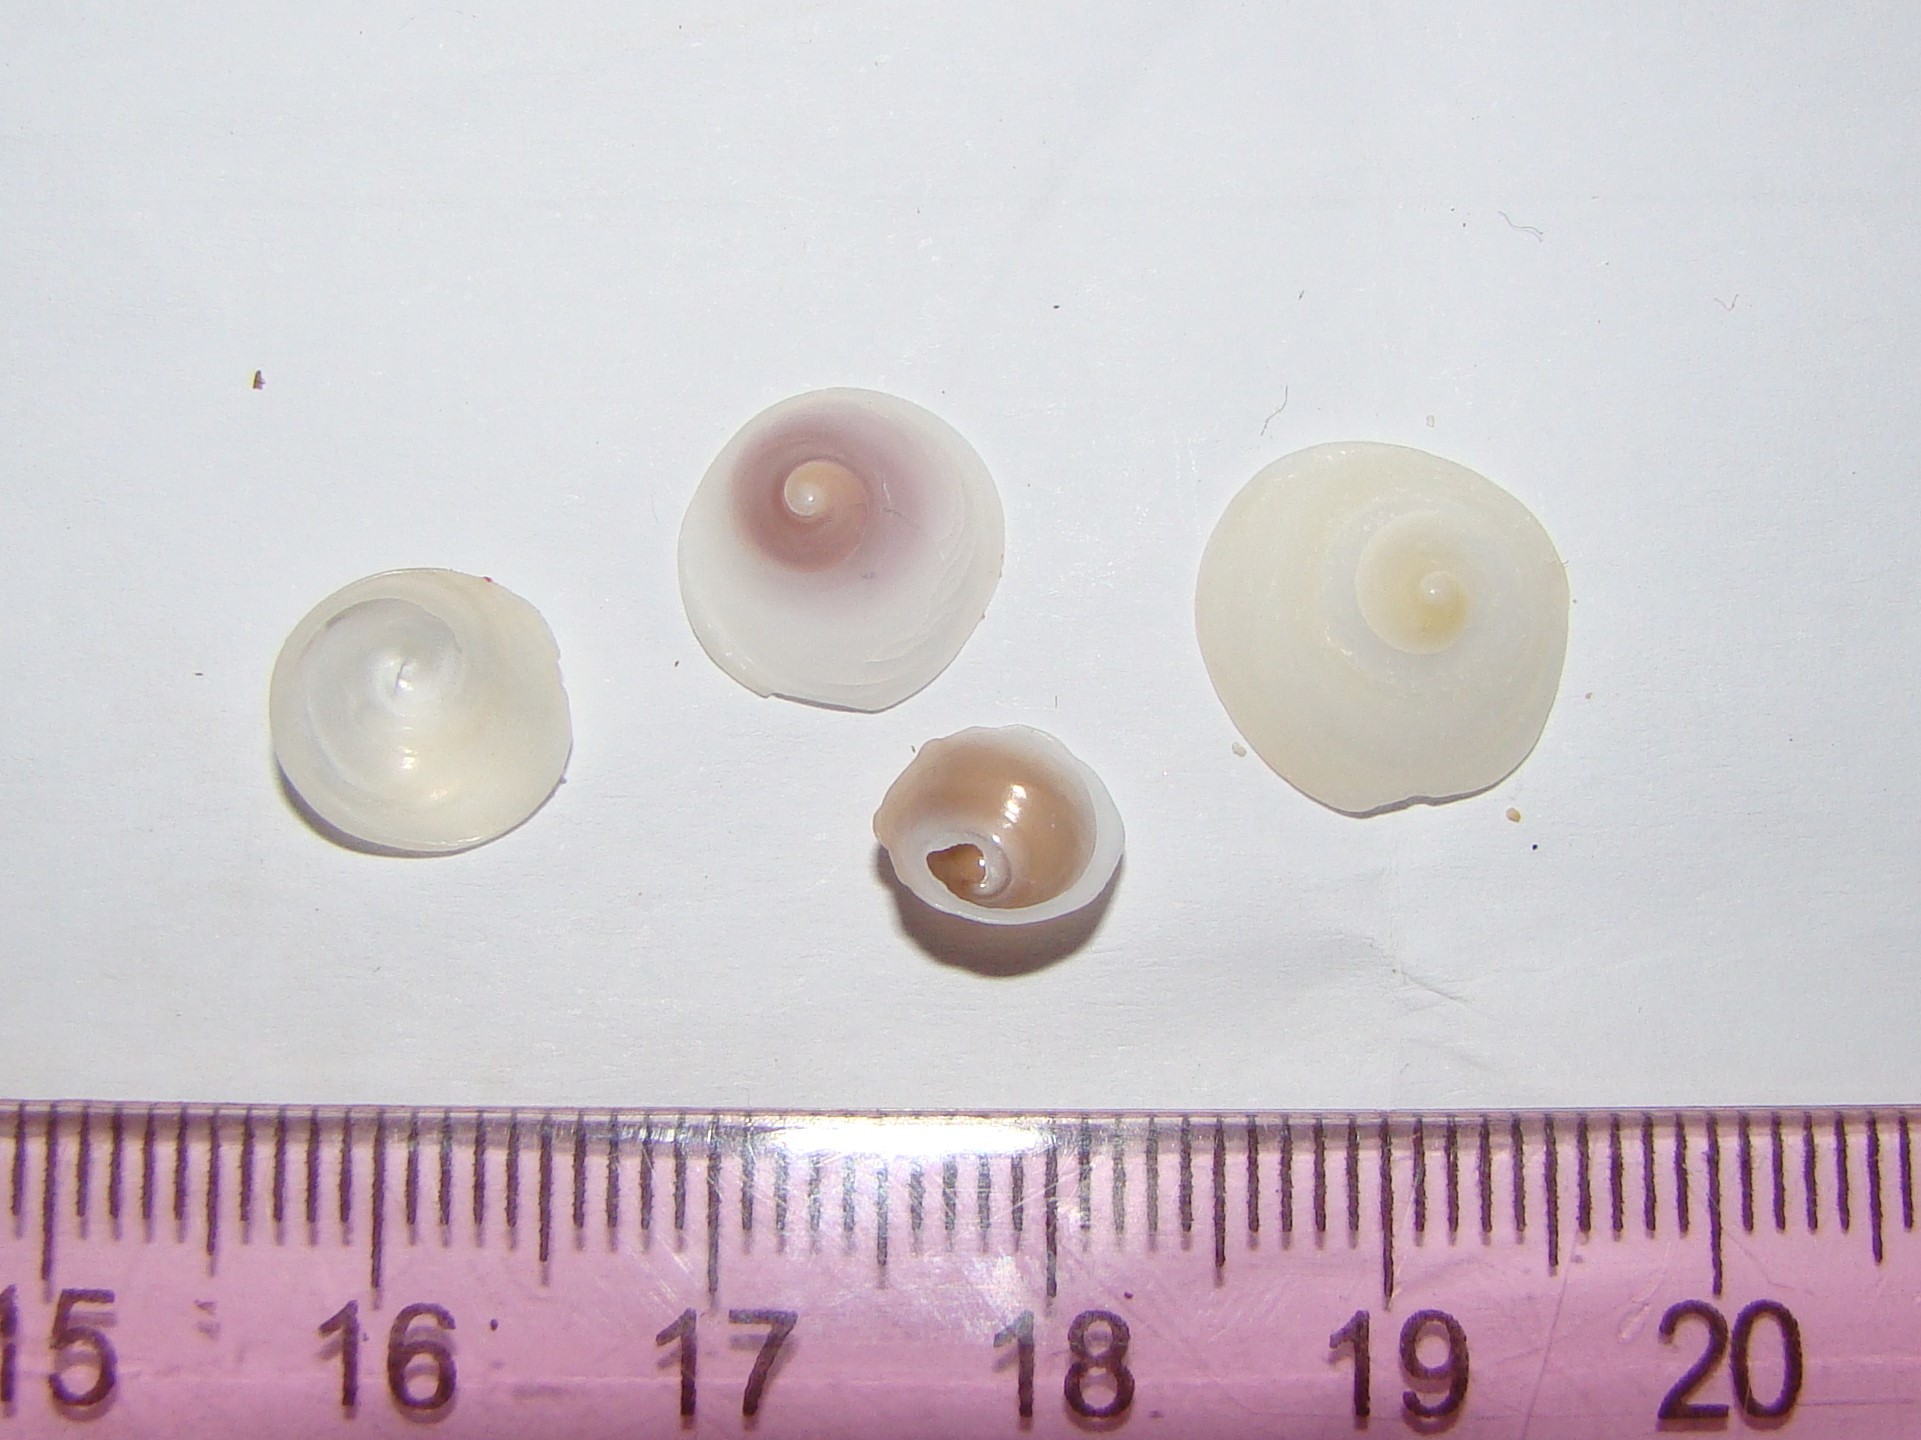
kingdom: Animalia
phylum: Mollusca
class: Gastropoda
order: Littorinimorpha
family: Calyptraeidae
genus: Sigapatella
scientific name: Sigapatella tenuis
